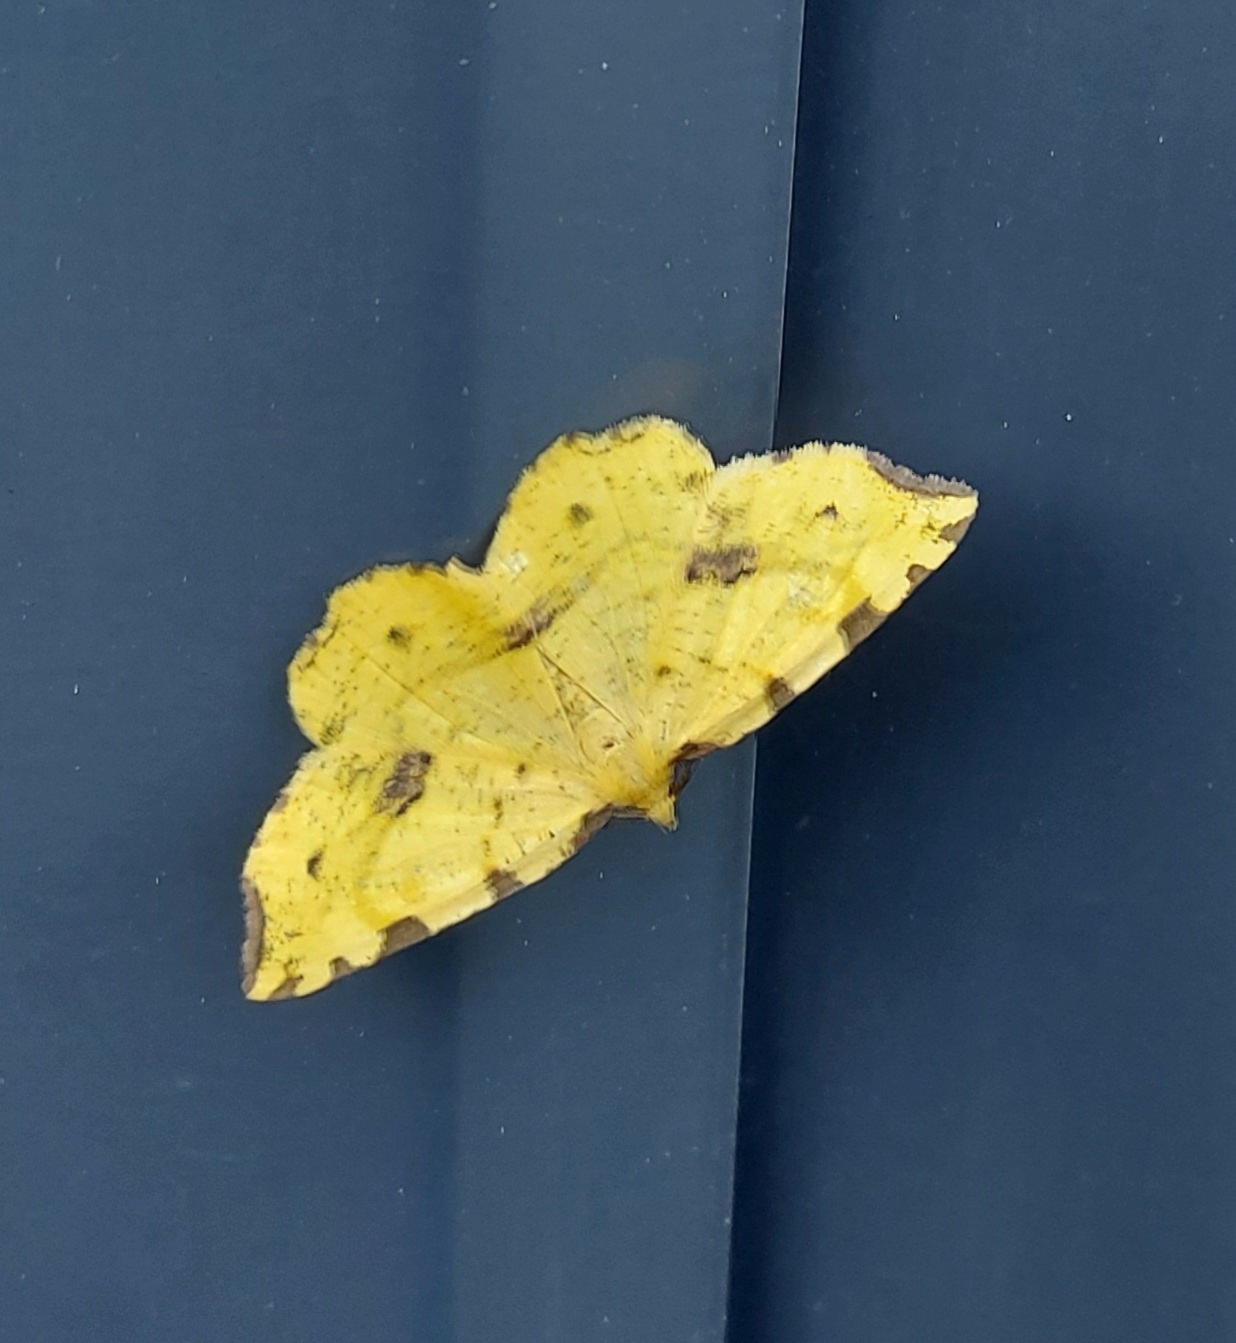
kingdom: Animalia
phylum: Arthropoda
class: Insecta
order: Lepidoptera
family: Geometridae
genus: Therapis
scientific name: Therapis flavicaria
